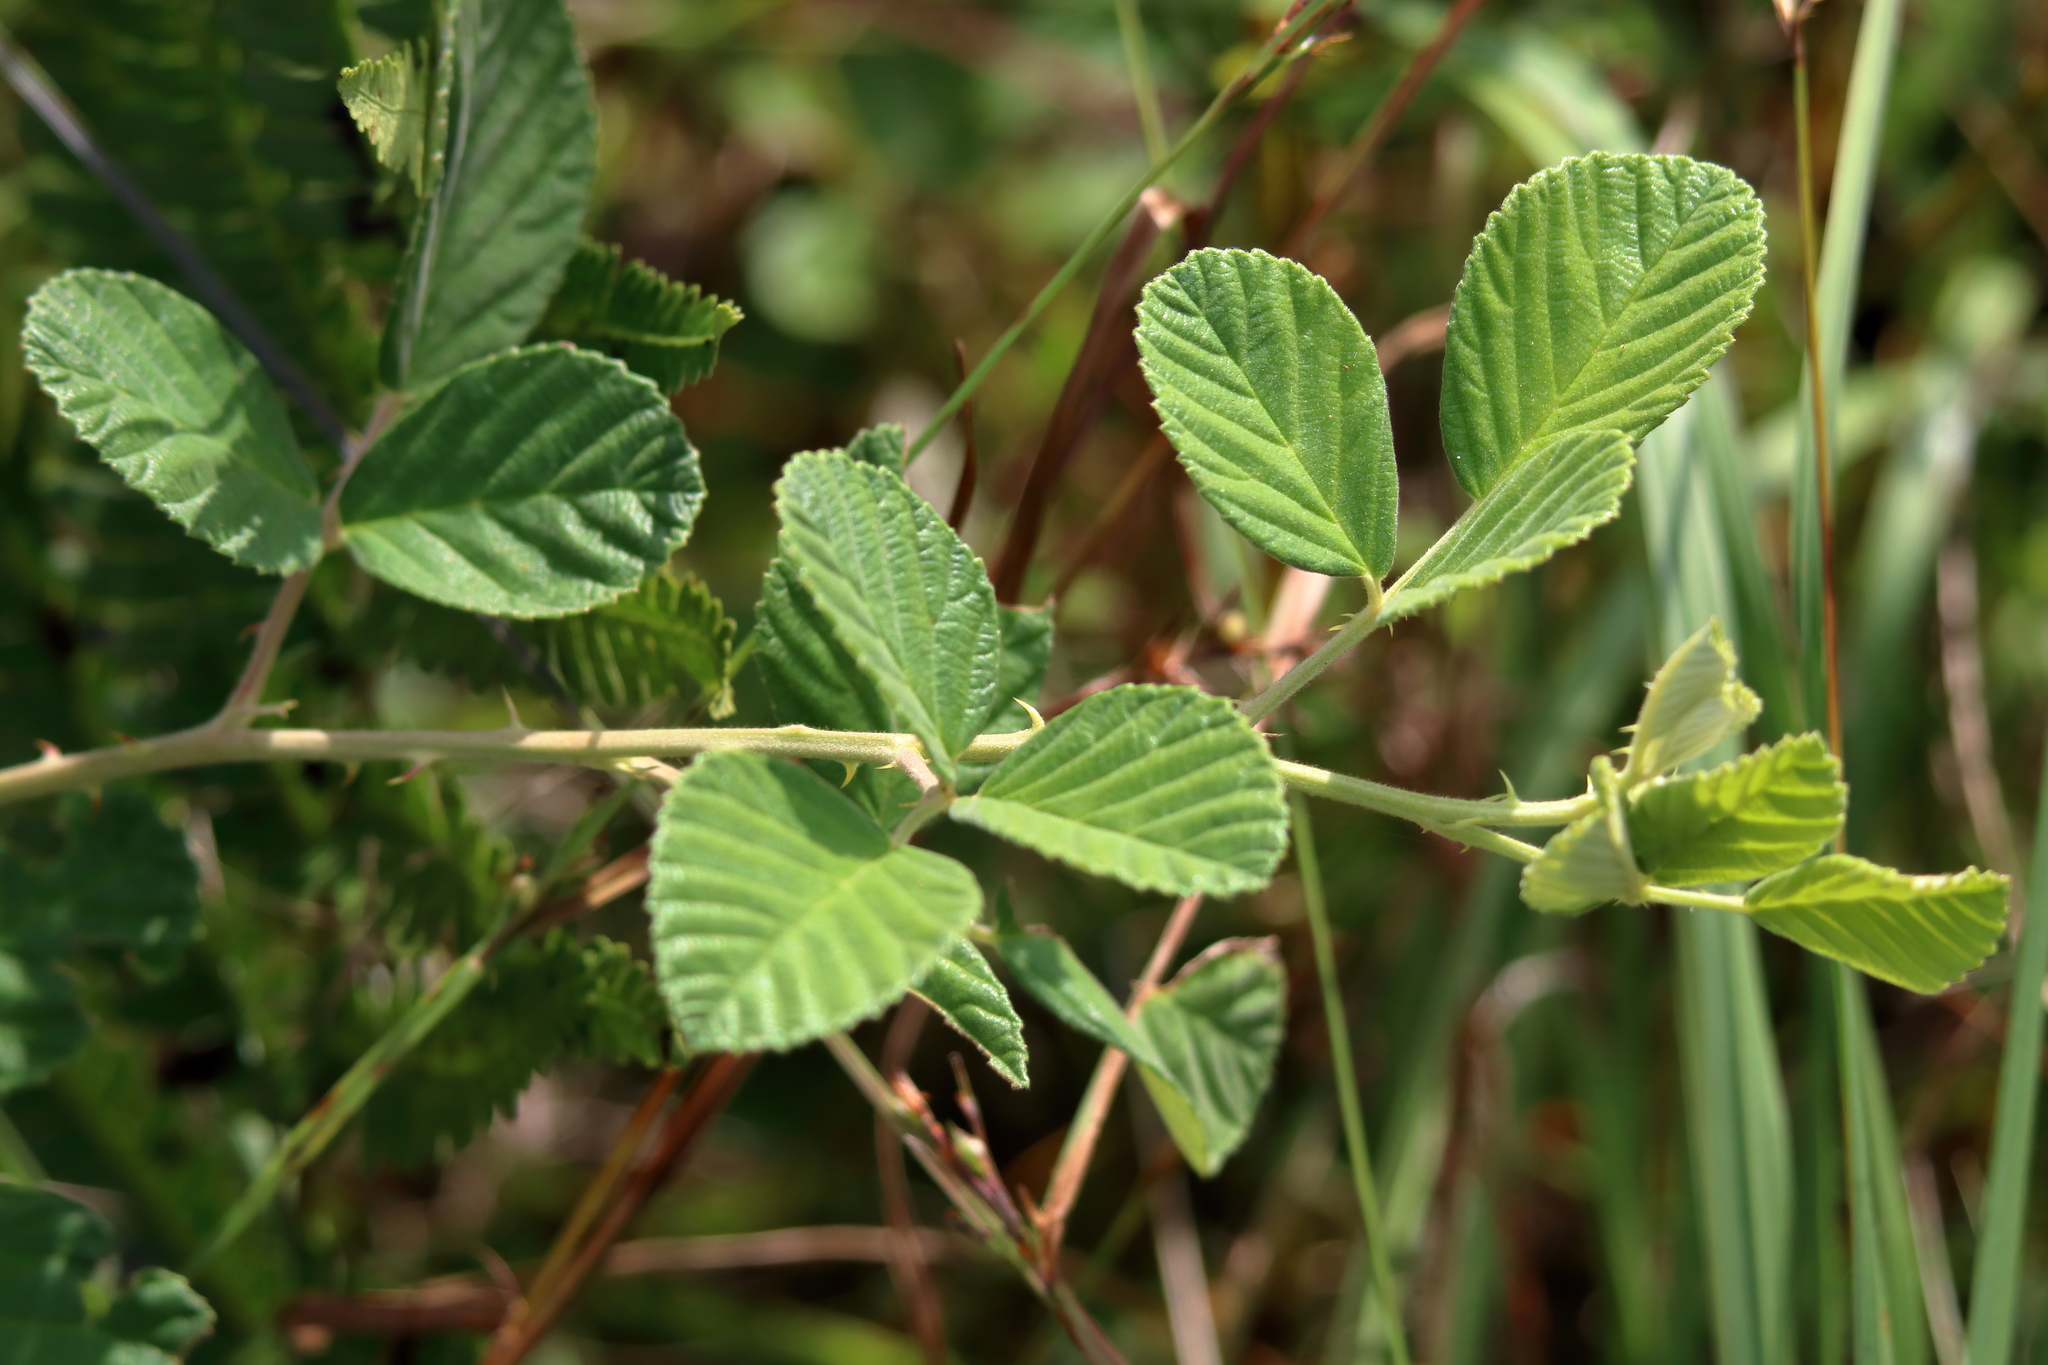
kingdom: Plantae
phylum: Tracheophyta
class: Magnoliopsida
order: Rosales
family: Rosaceae
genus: Rubus
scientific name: Rubus cuneifolius
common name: American bramble
